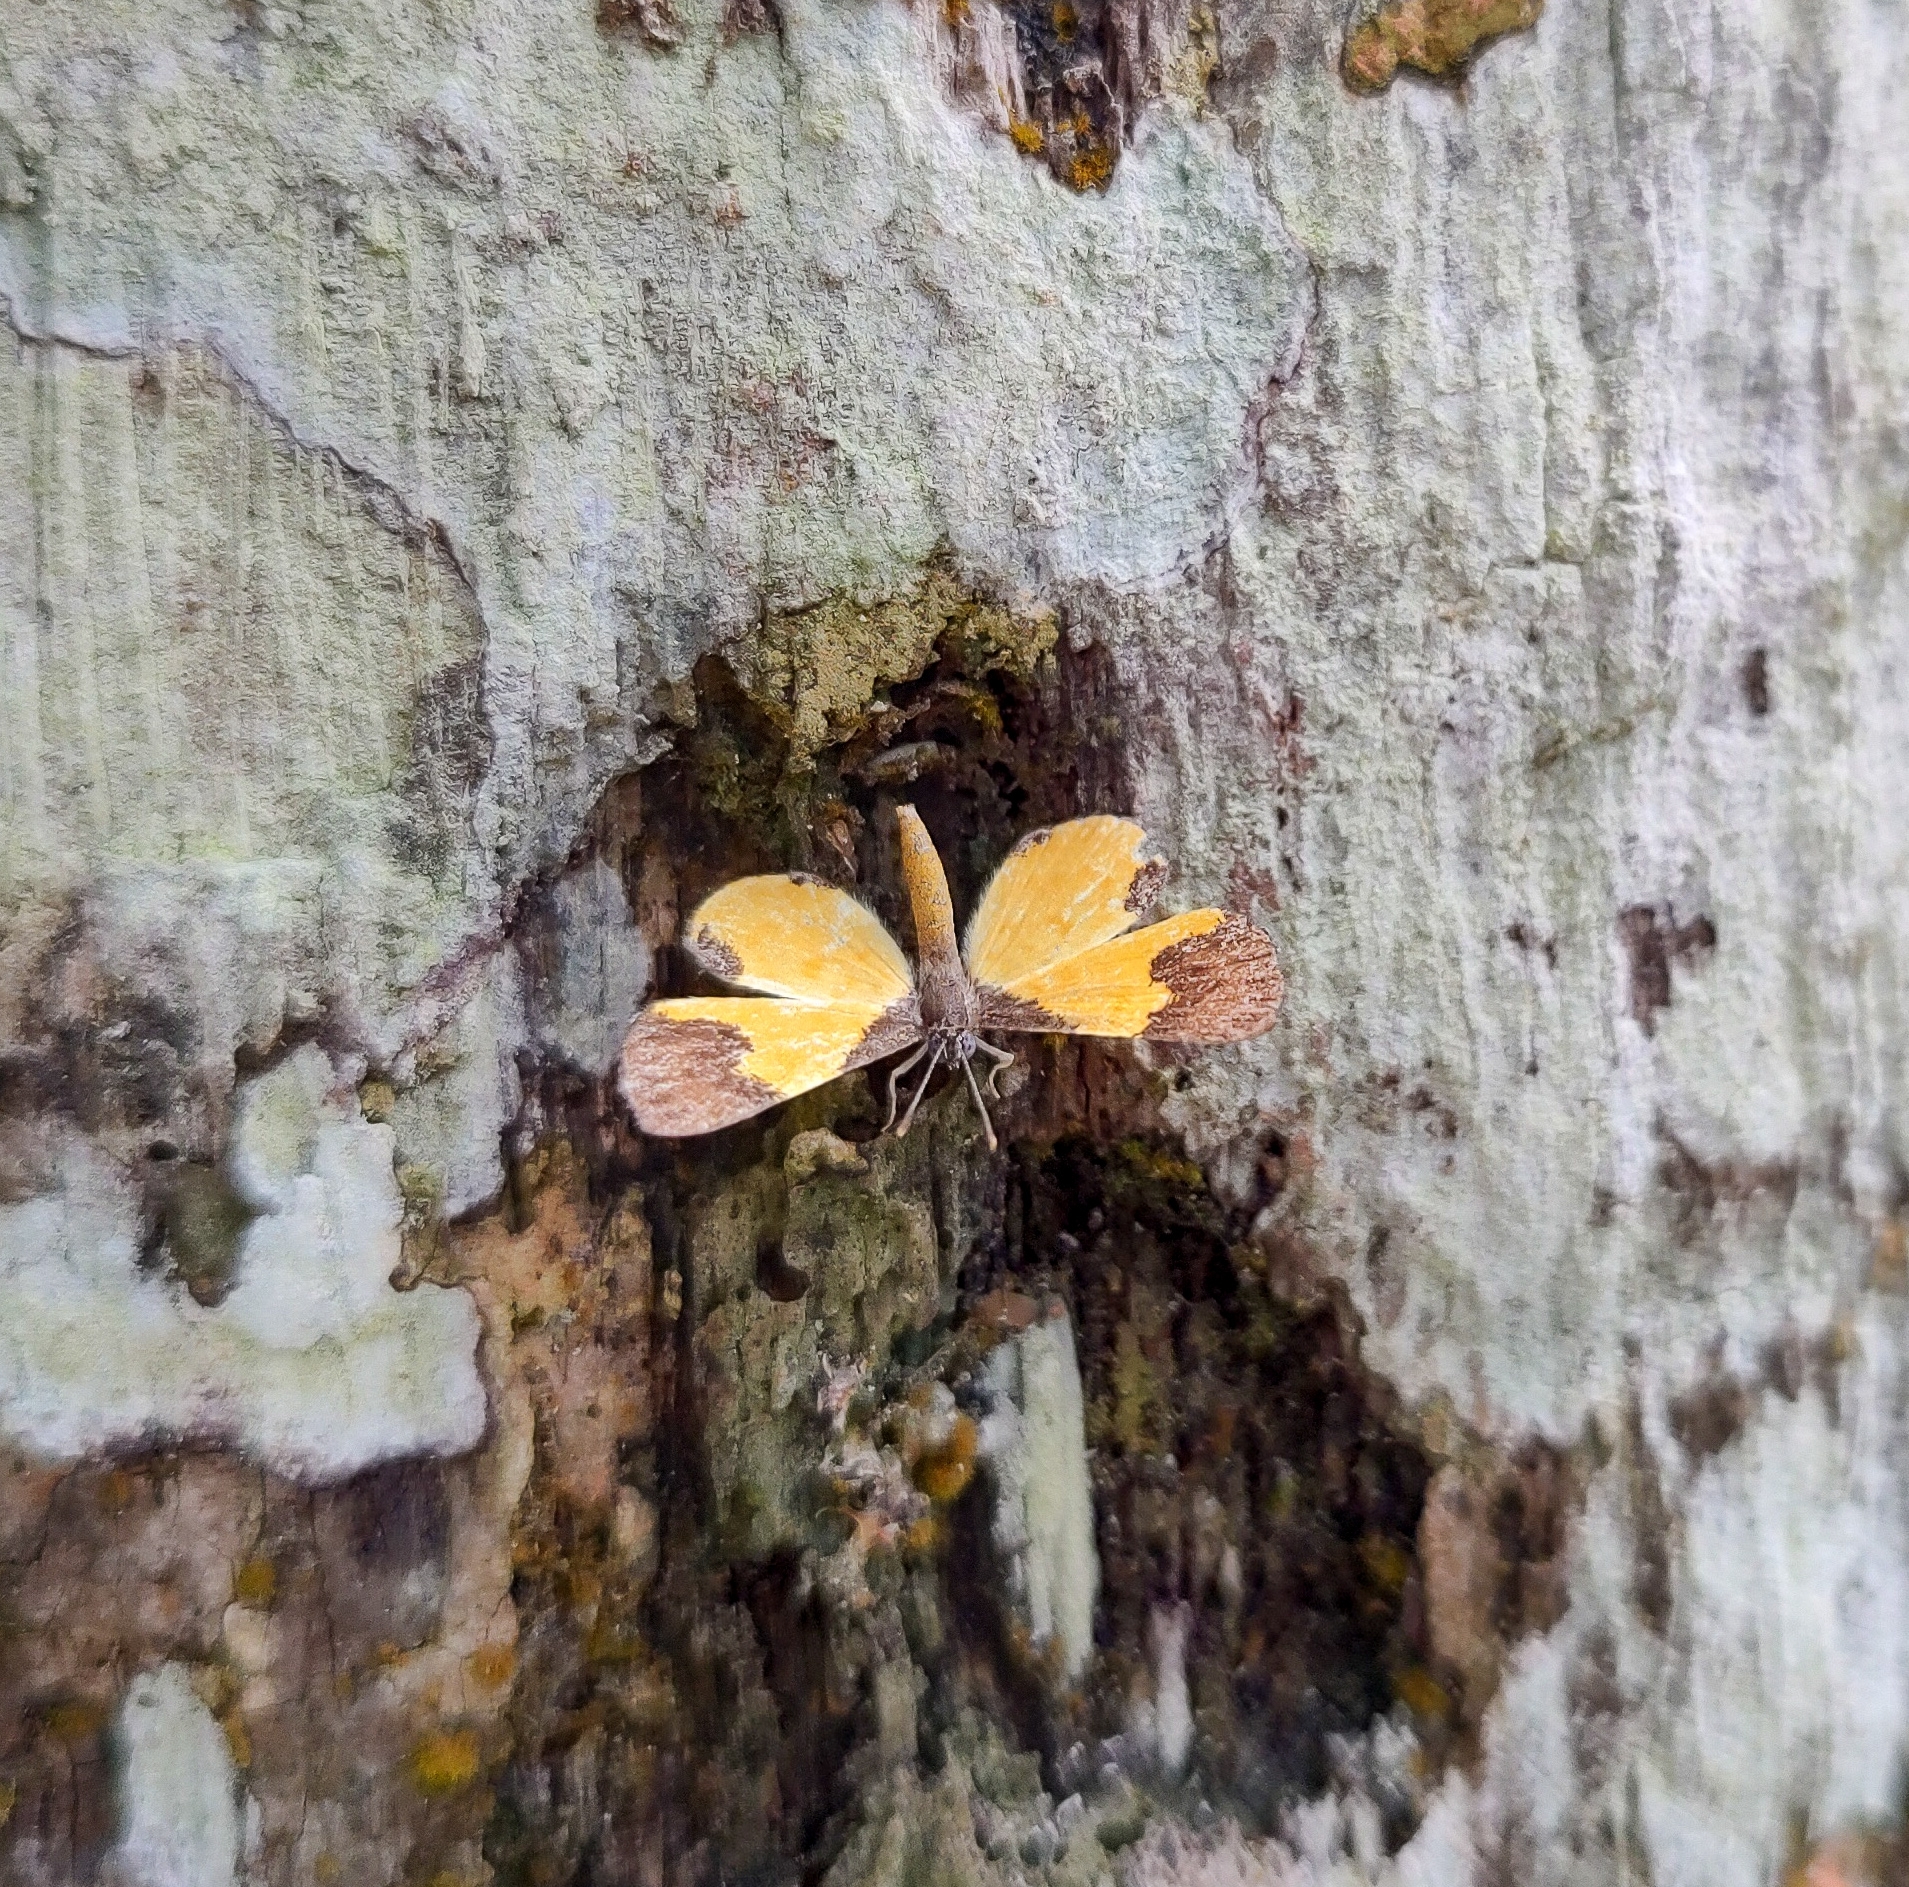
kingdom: Animalia
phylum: Arthropoda
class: Insecta
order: Lepidoptera
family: Riodinidae
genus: Echenais
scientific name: Echenais Adelotypa bolena
